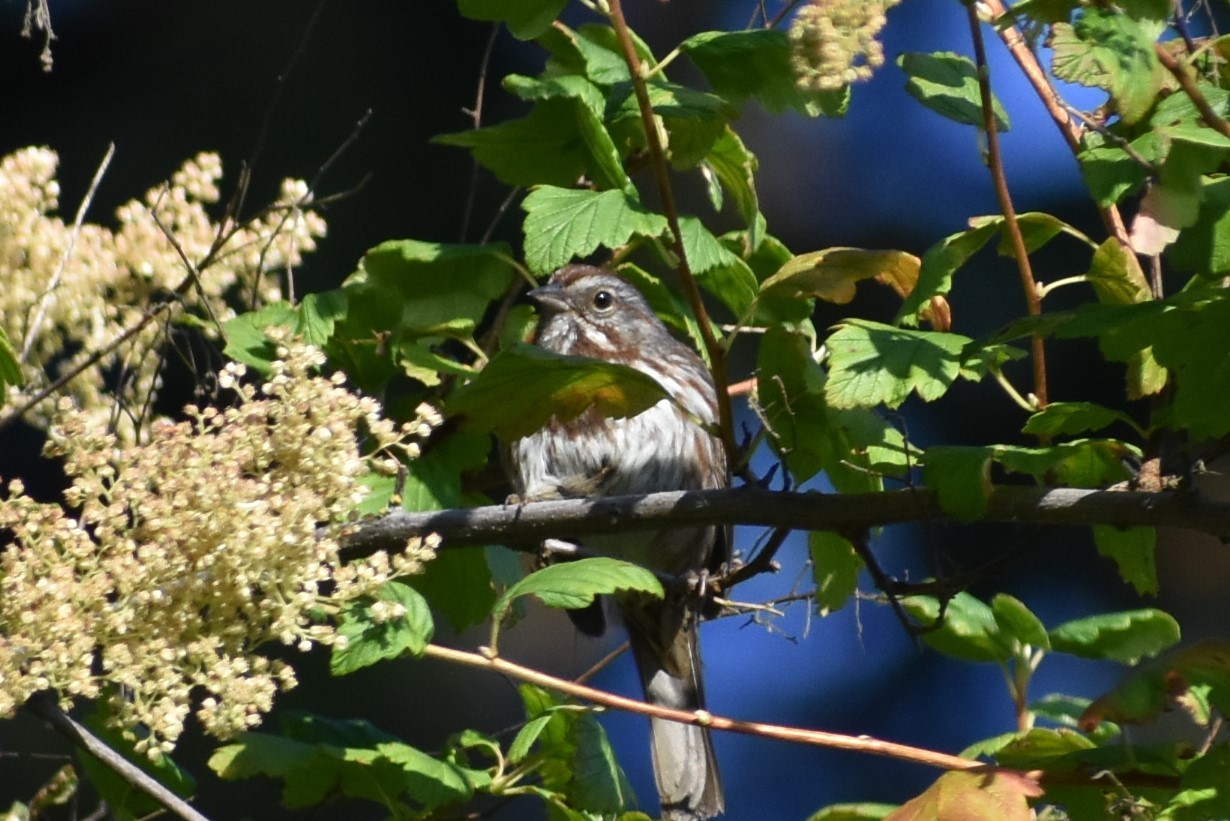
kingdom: Animalia
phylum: Chordata
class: Aves
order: Passeriformes
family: Passerellidae
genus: Melospiza
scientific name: Melospiza melodia
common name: Song sparrow
